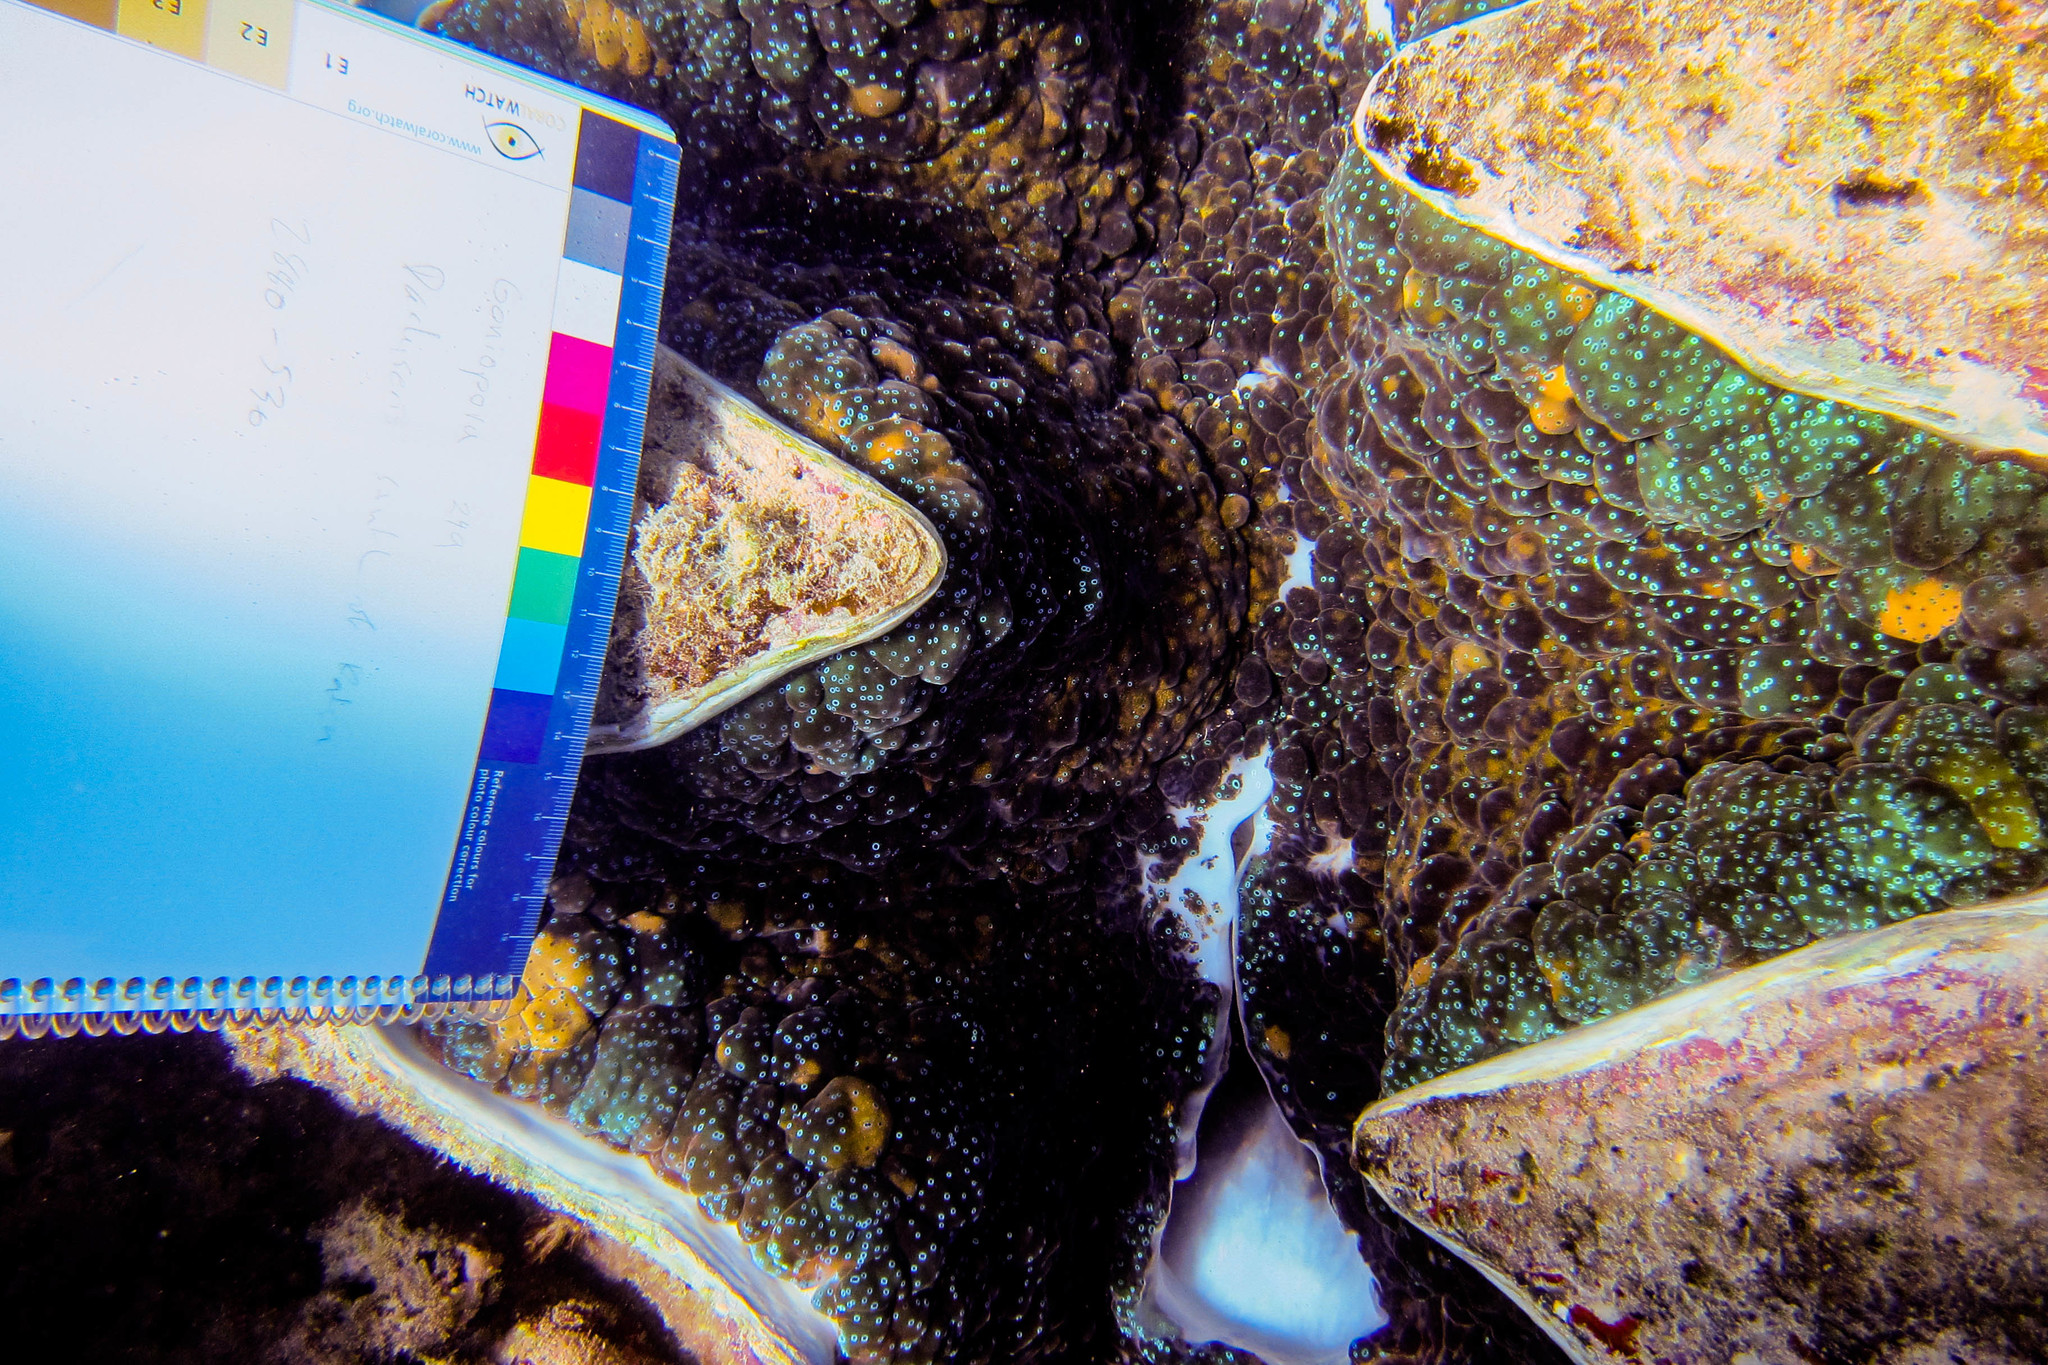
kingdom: Animalia
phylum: Mollusca
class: Bivalvia
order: Cardiida
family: Cardiidae
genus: Tridacna
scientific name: Tridacna gigas
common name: Giant clam
